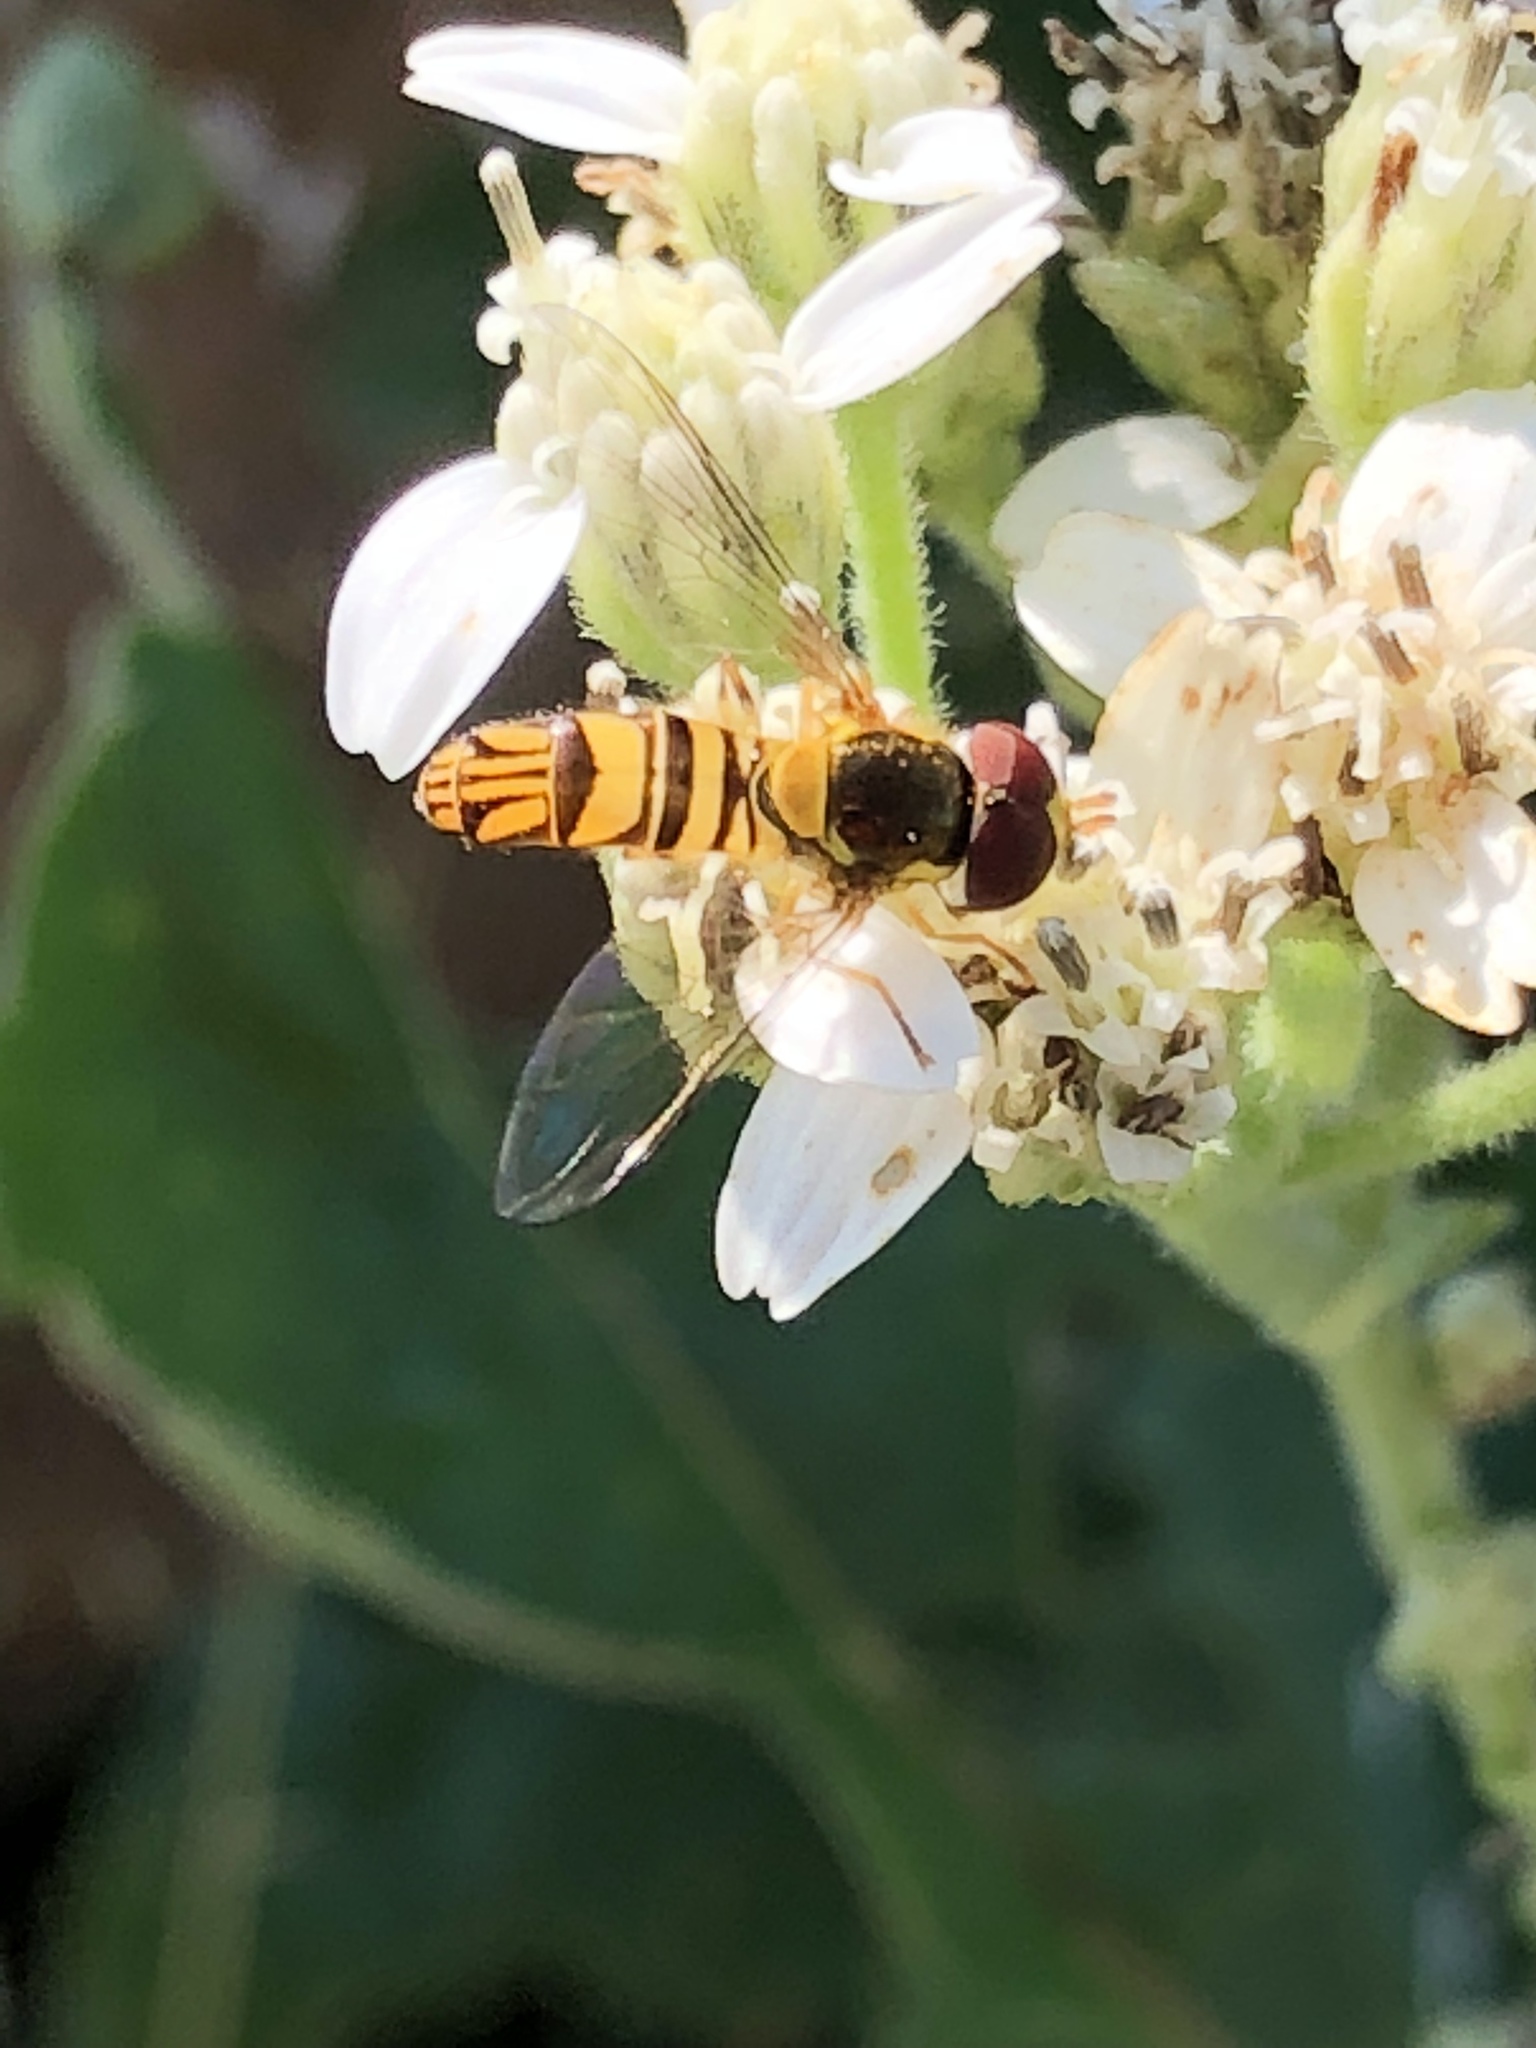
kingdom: Animalia
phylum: Arthropoda
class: Insecta
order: Diptera
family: Syrphidae
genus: Allograpta
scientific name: Allograpta obliqua
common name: Common oblique syrphid
